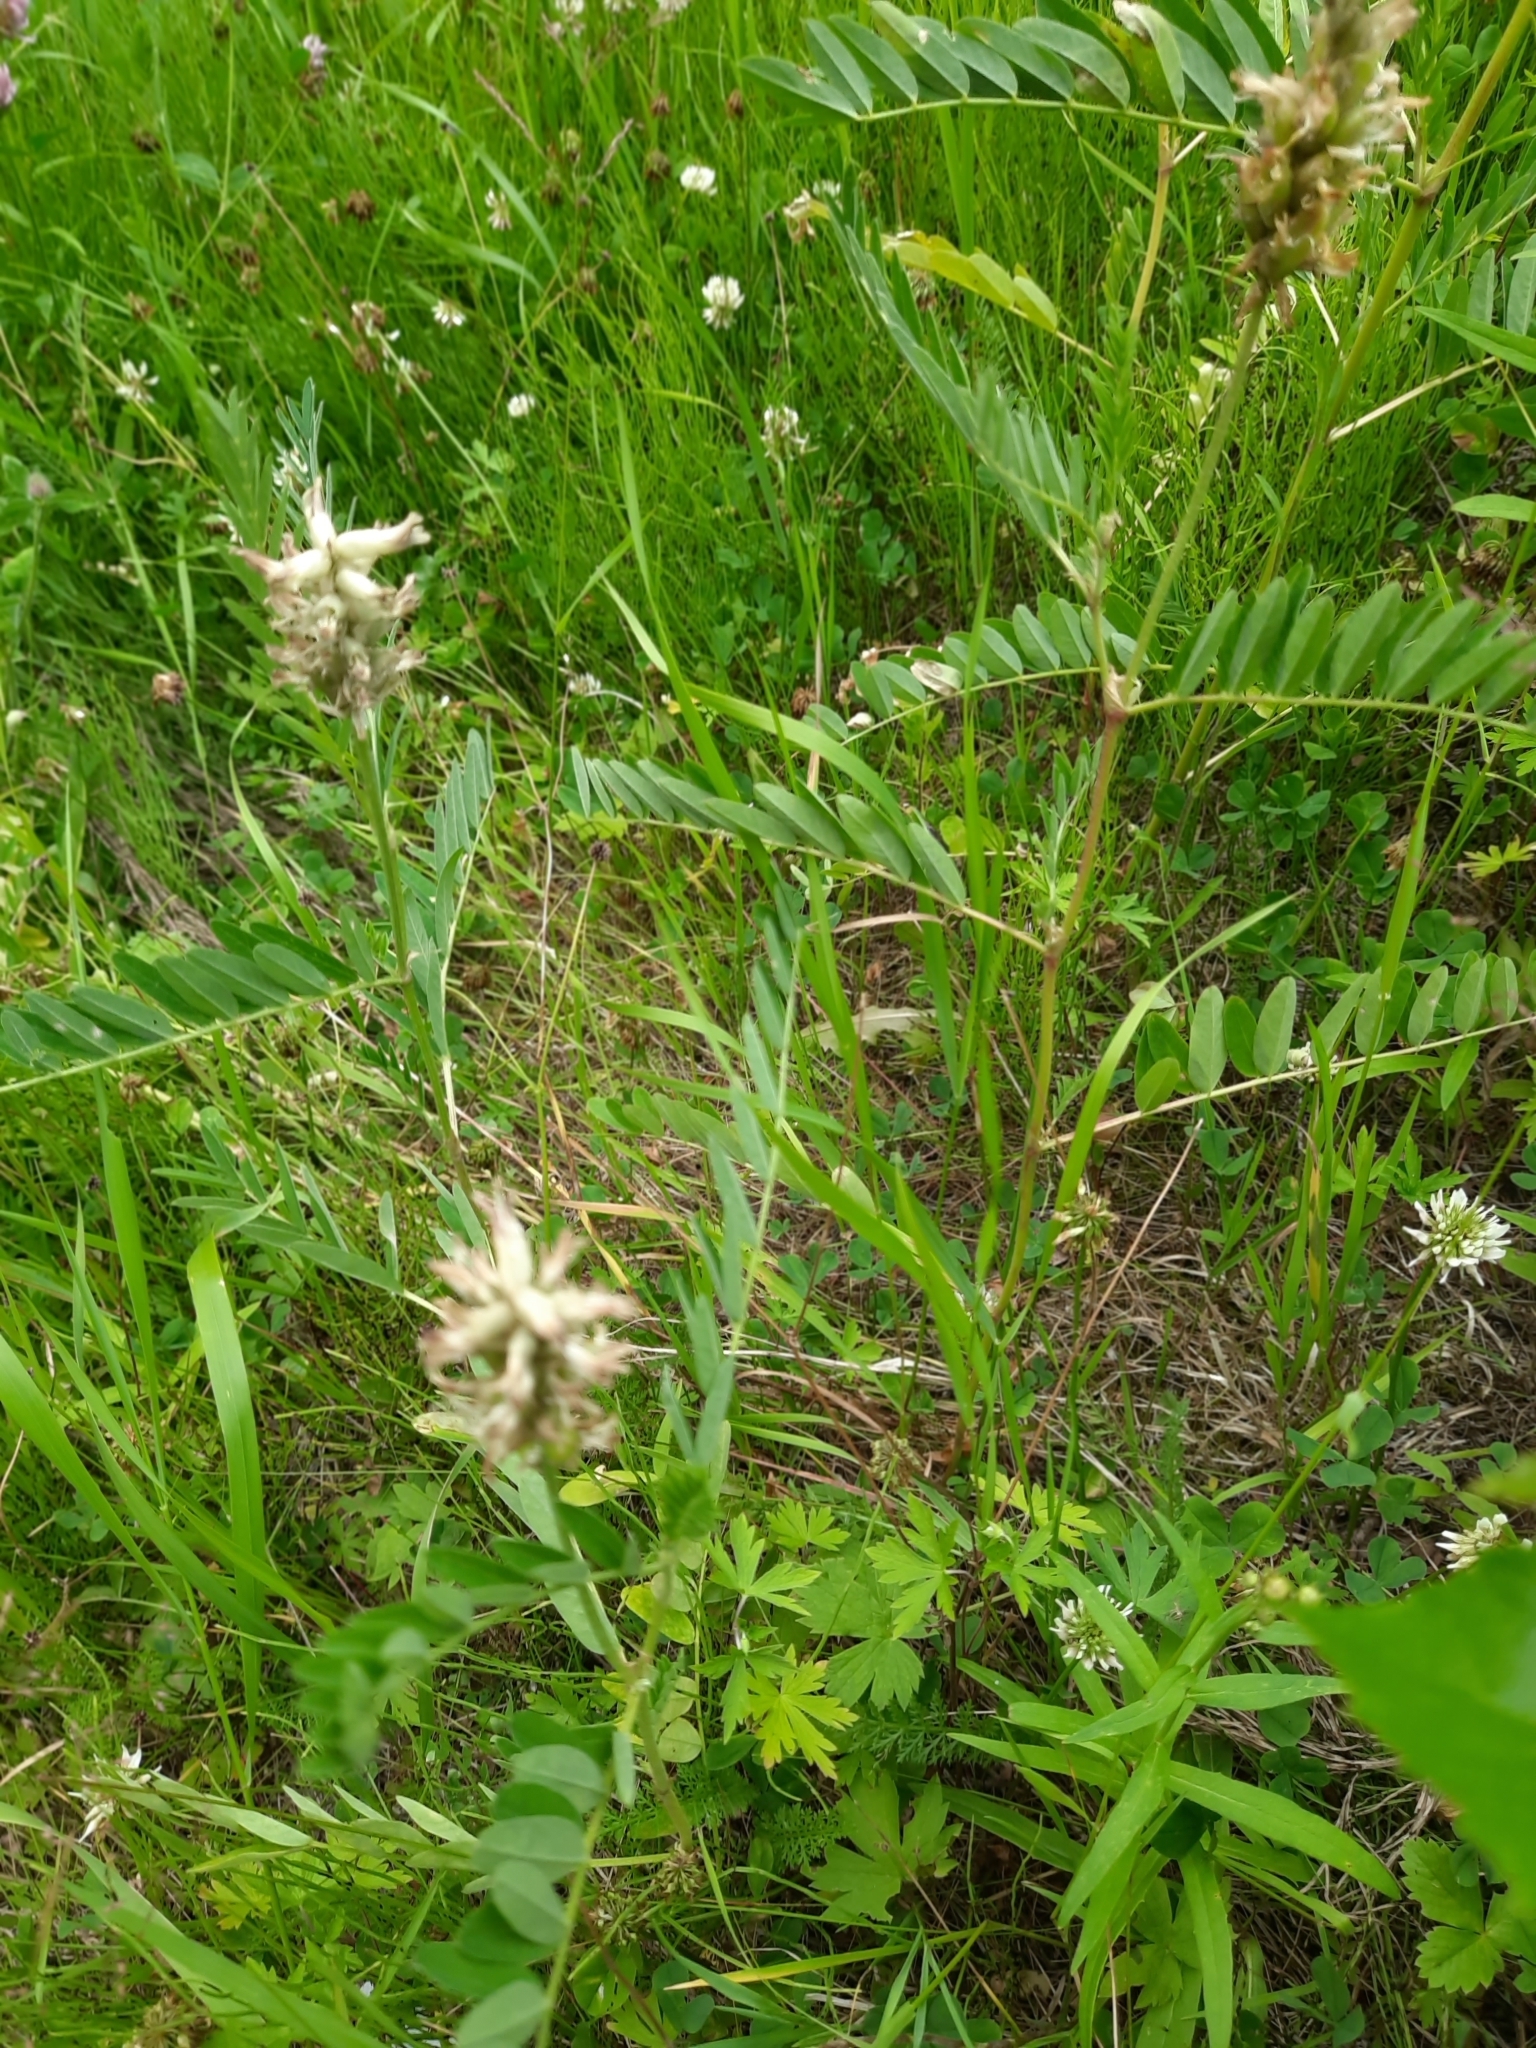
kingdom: Plantae
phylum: Tracheophyta
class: Magnoliopsida
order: Fabales
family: Fabaceae
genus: Astragalus
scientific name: Astragalus uliginosus
